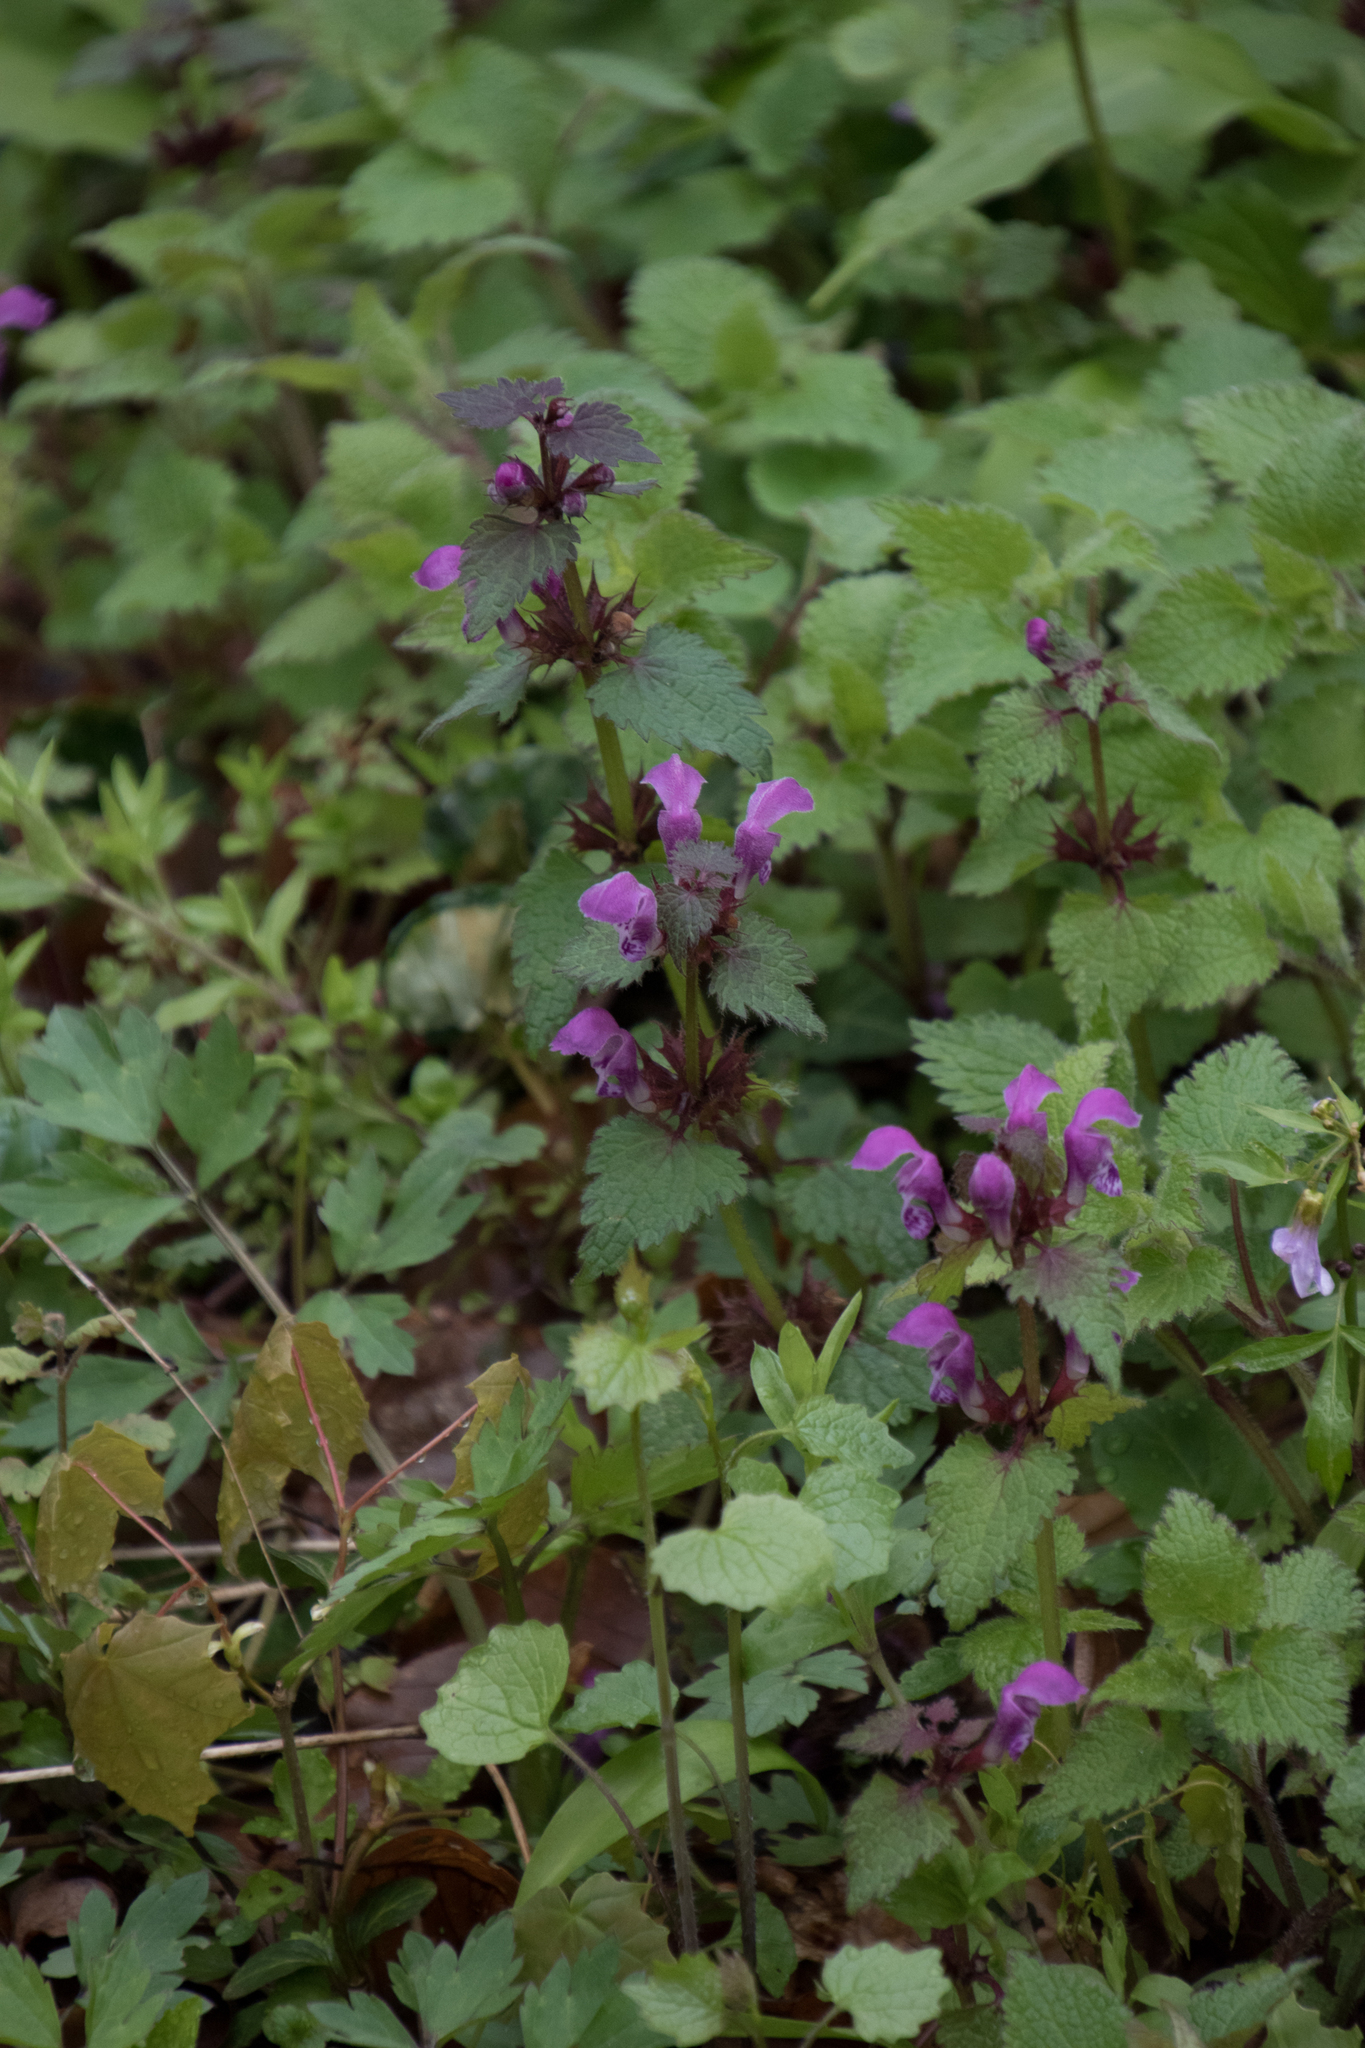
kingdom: Plantae
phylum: Tracheophyta
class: Magnoliopsida
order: Lamiales
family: Lamiaceae
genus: Lamium
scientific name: Lamium maculatum
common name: Spotted dead-nettle
